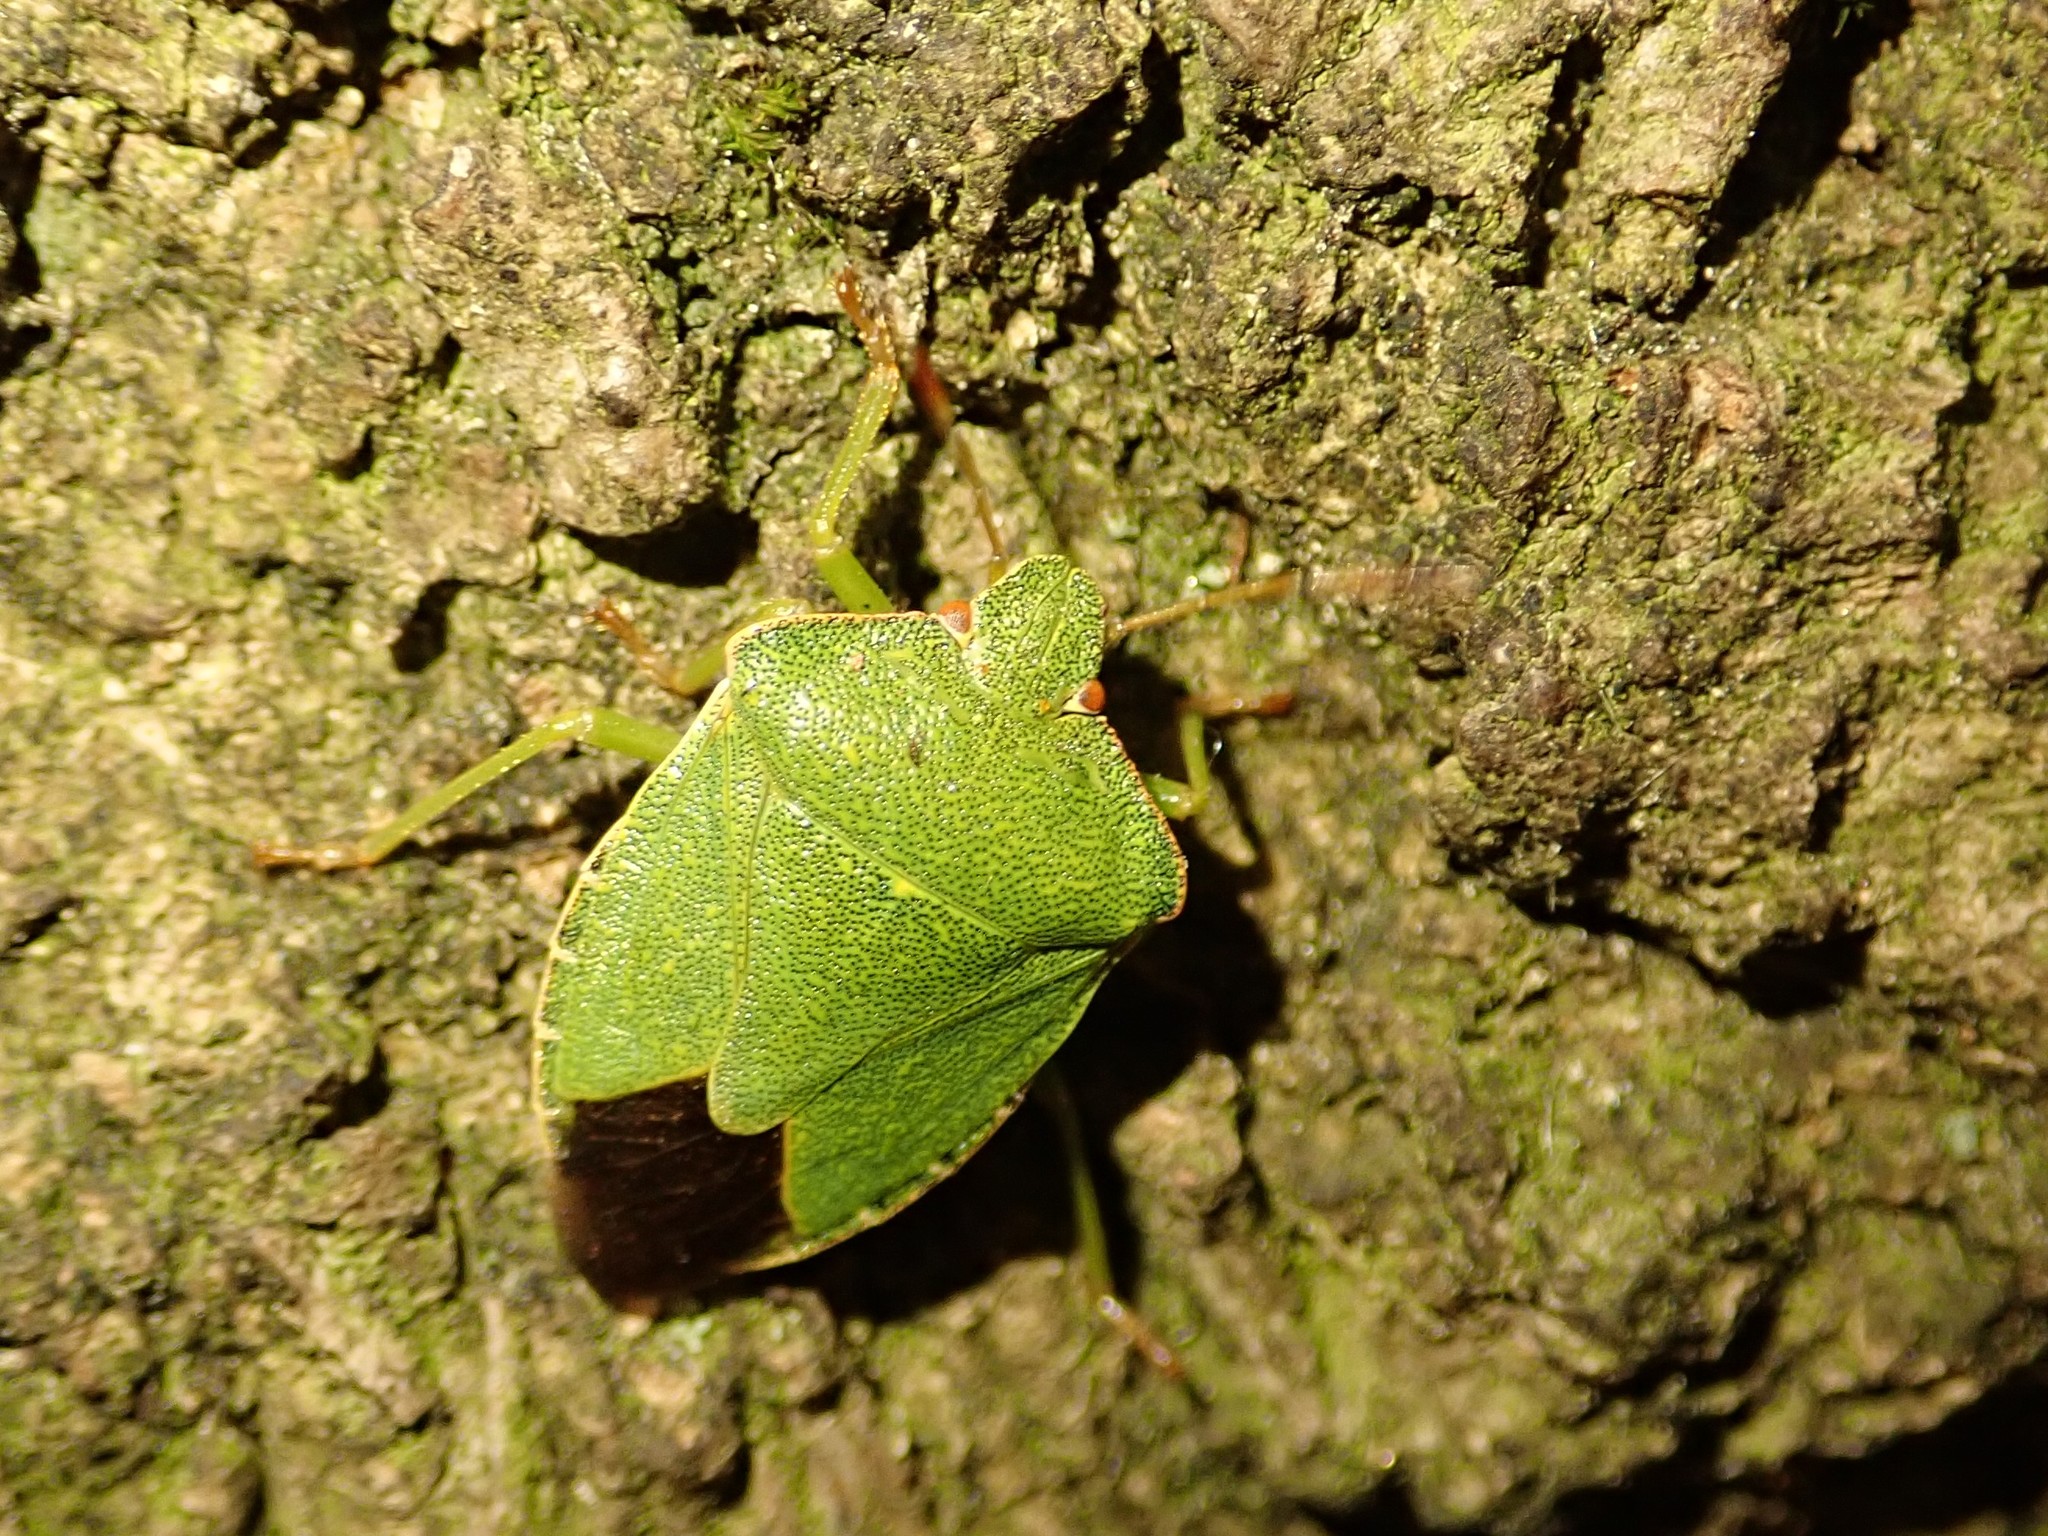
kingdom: Animalia
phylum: Arthropoda
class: Insecta
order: Hemiptera
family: Pentatomidae
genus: Palomena
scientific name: Palomena prasina
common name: Green shieldbug
